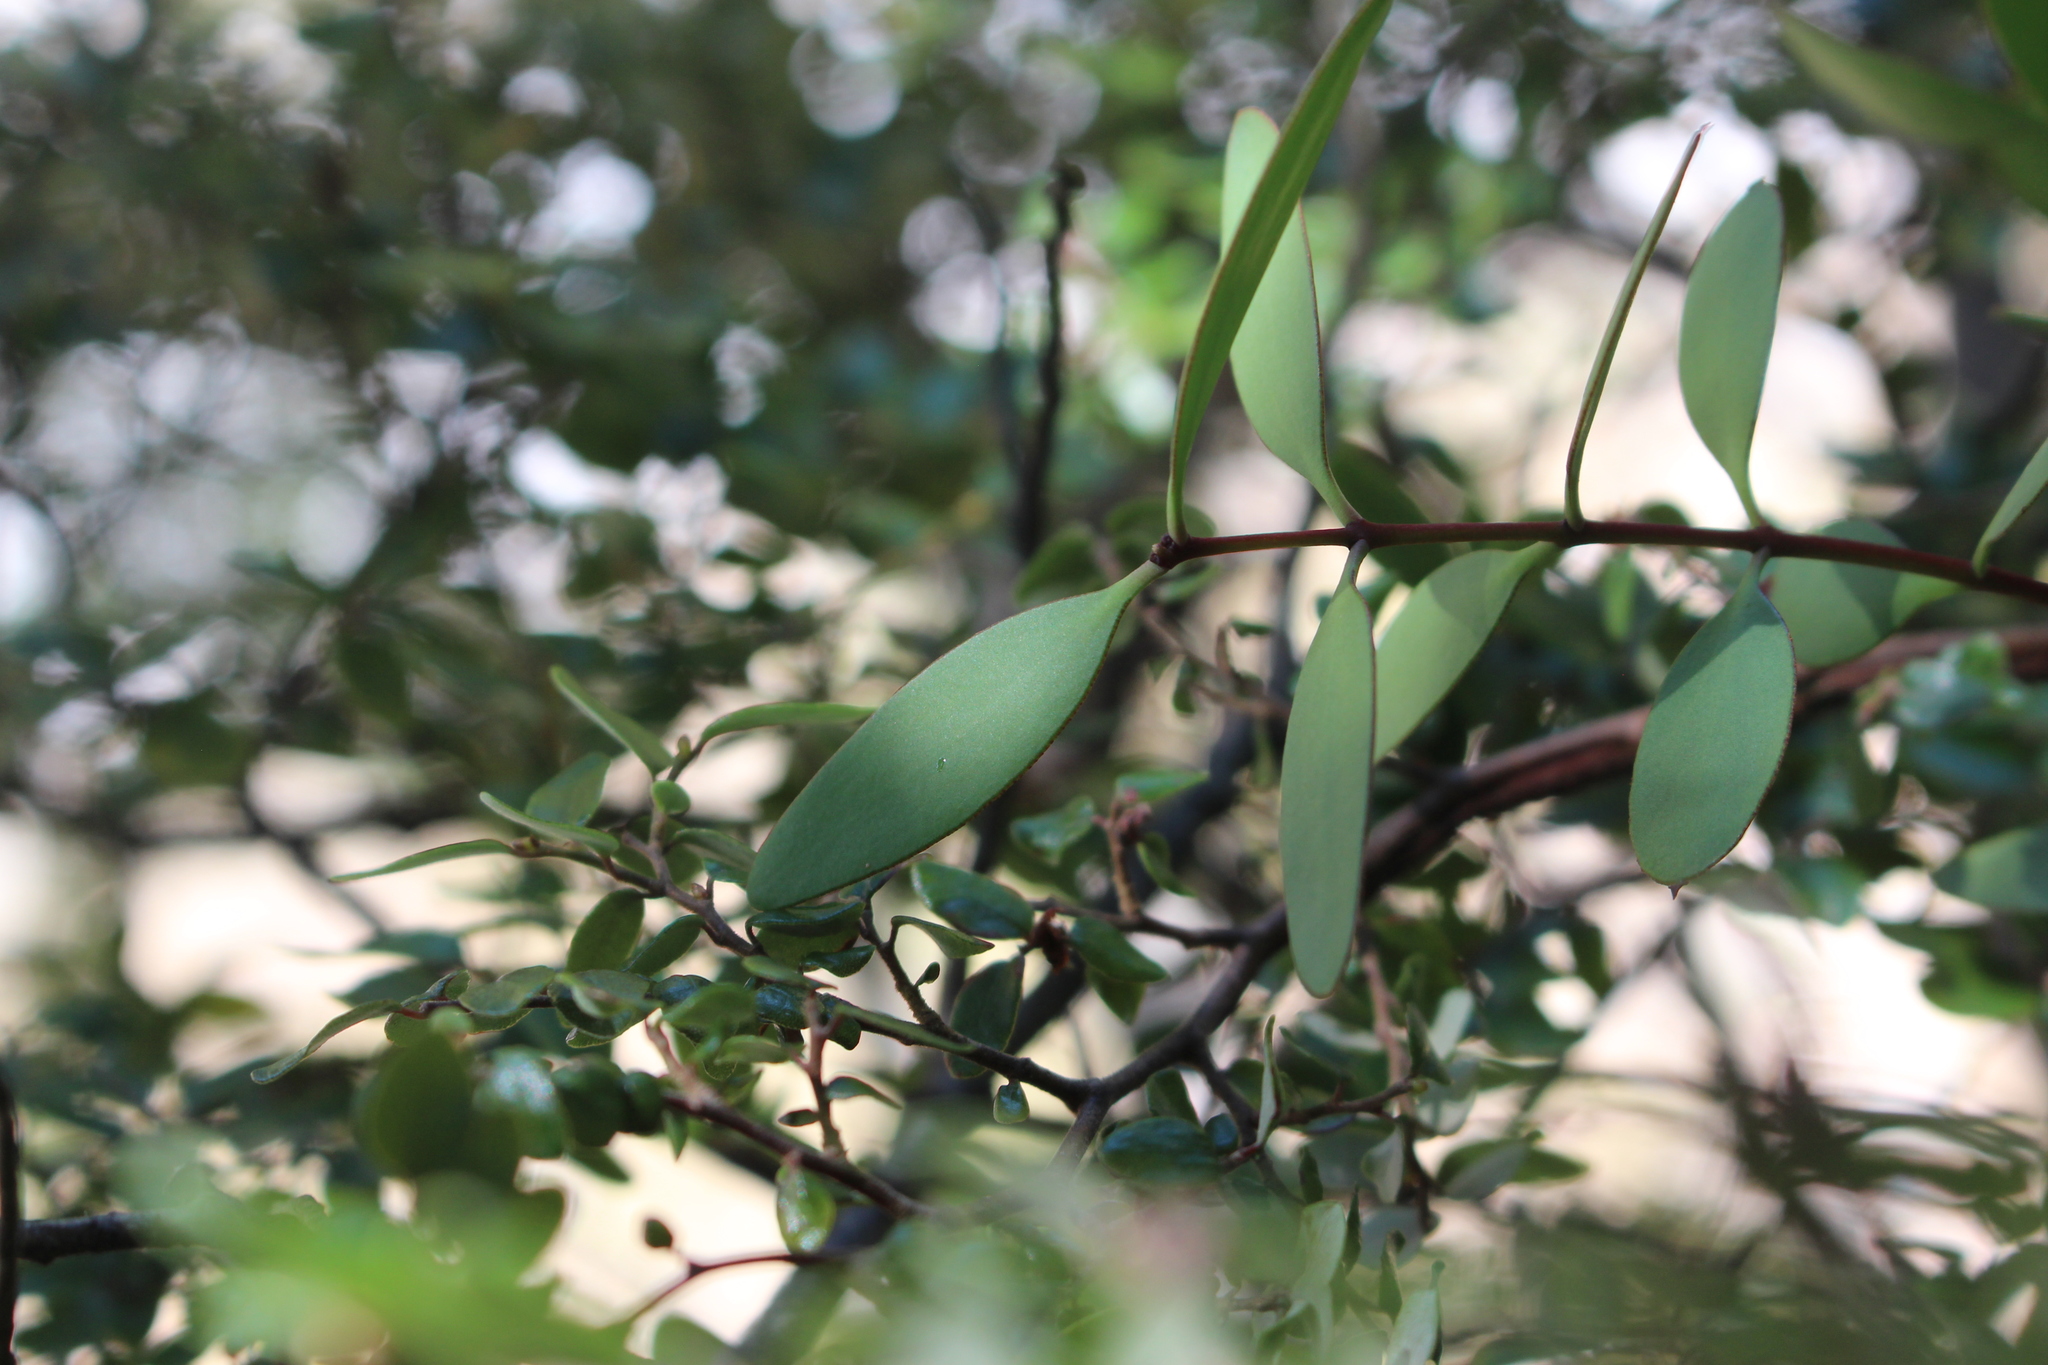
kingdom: Plantae
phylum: Tracheophyta
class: Magnoliopsida
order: Santalales
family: Loranthaceae
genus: Alepis
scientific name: Alepis flavida
